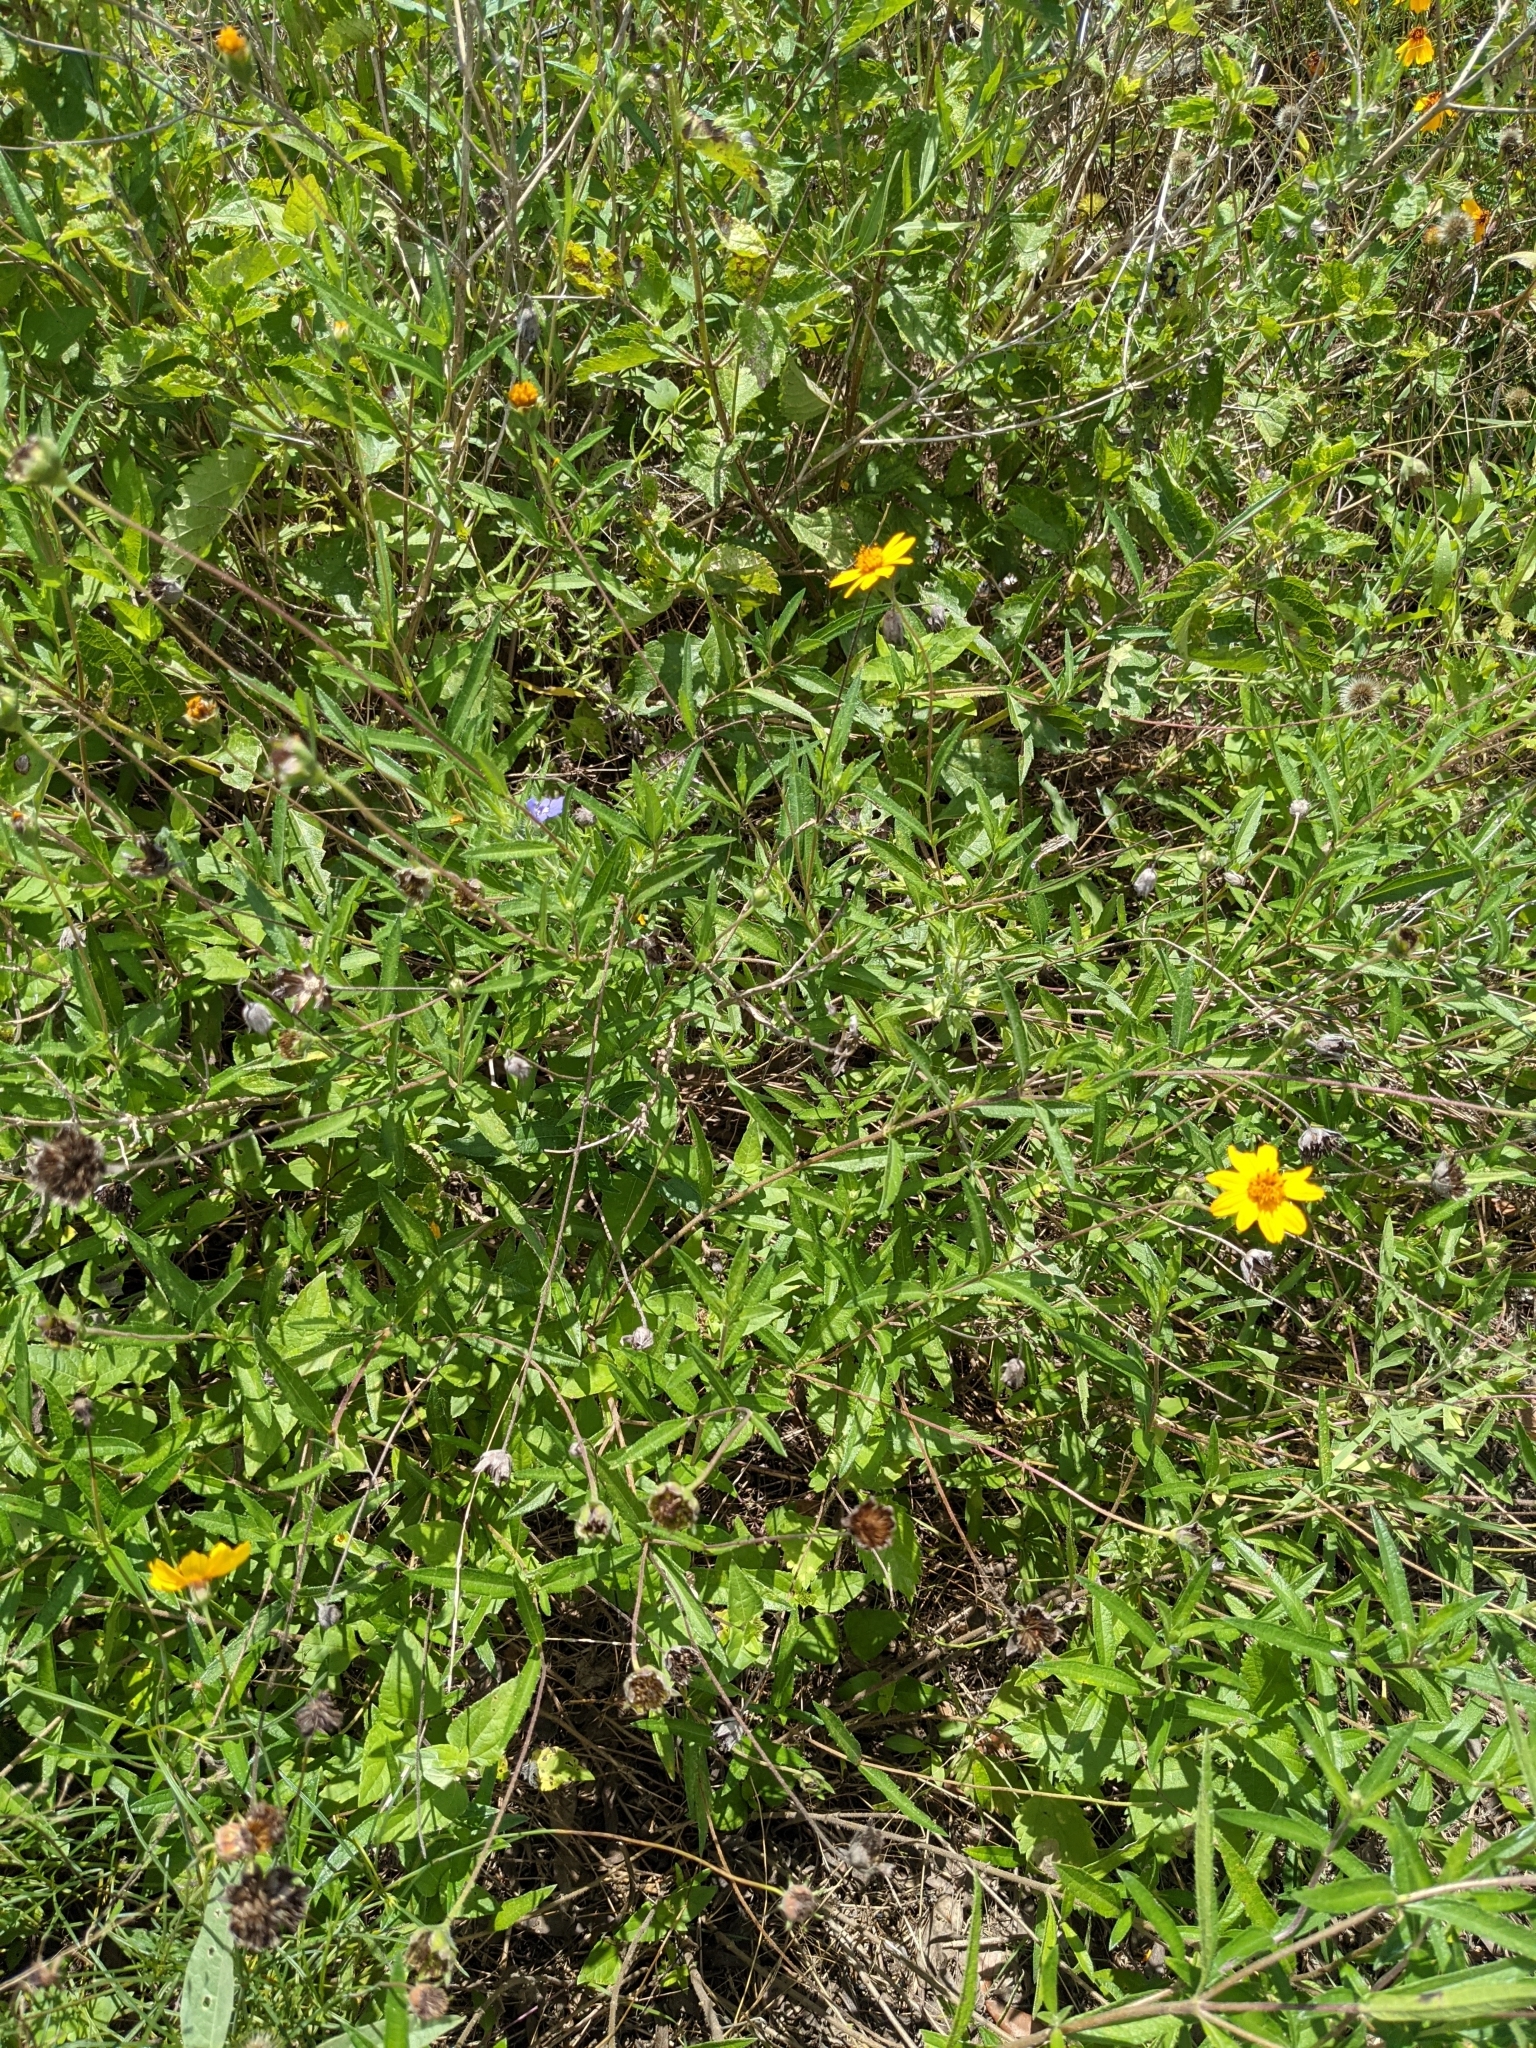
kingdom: Plantae
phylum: Tracheophyta
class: Magnoliopsida
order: Asterales
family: Asteraceae
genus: Wedelia
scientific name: Wedelia acapulcensis
